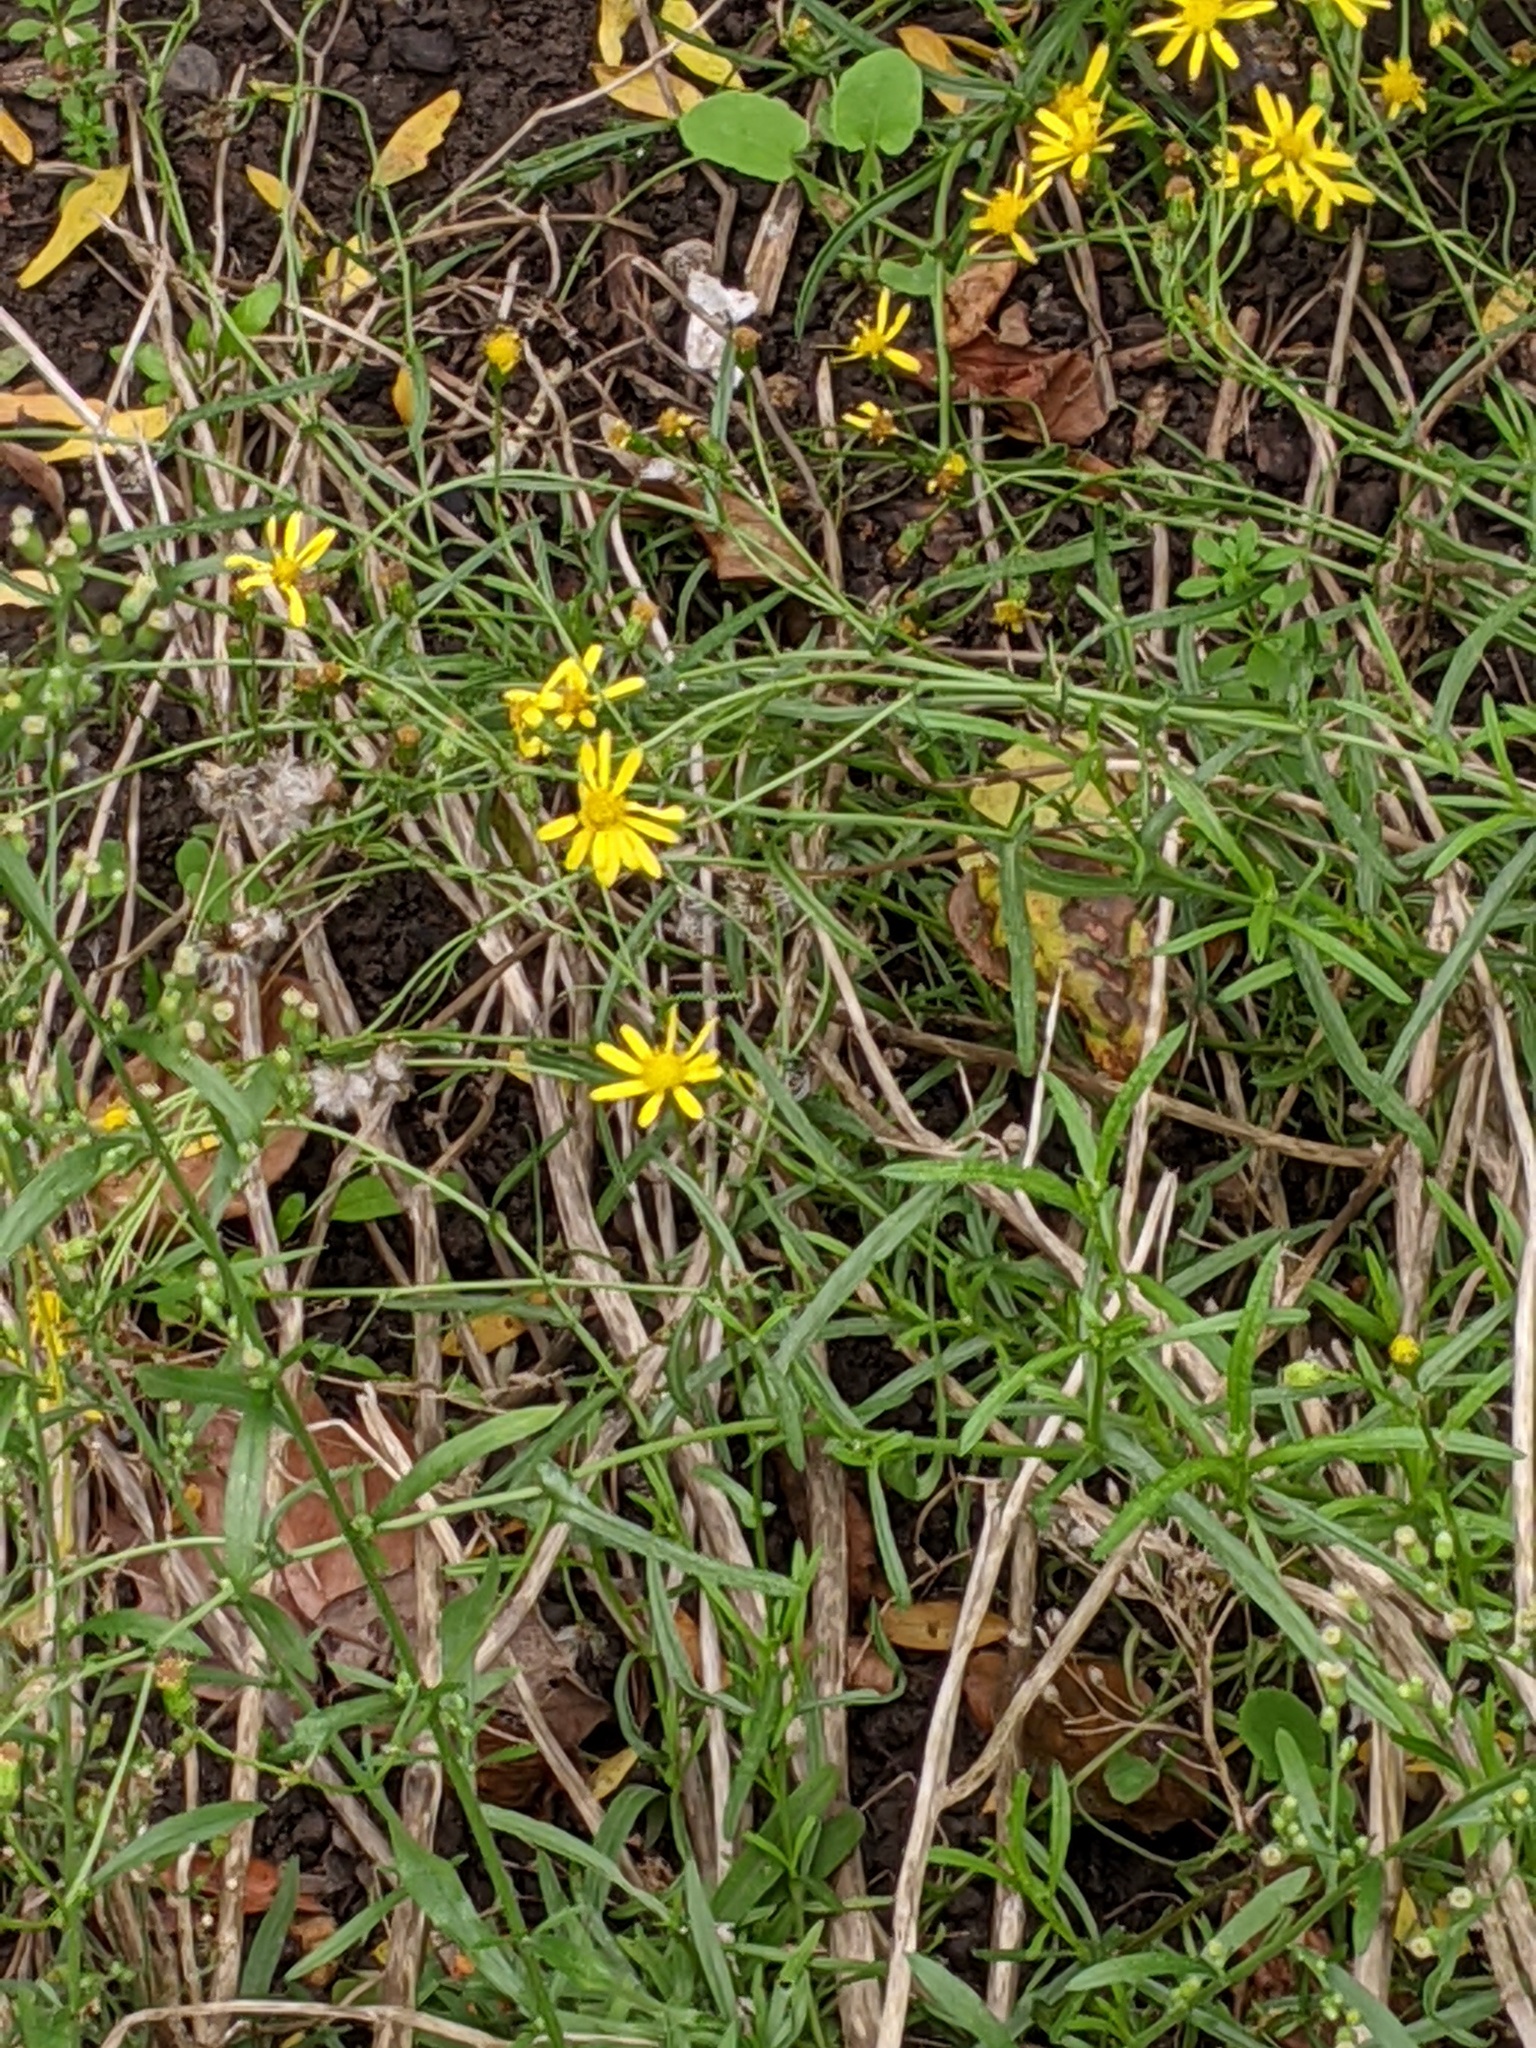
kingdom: Plantae
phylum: Tracheophyta
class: Magnoliopsida
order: Asterales
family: Asteraceae
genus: Senecio
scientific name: Senecio inaequidens
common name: Narrow-leaved ragwort
